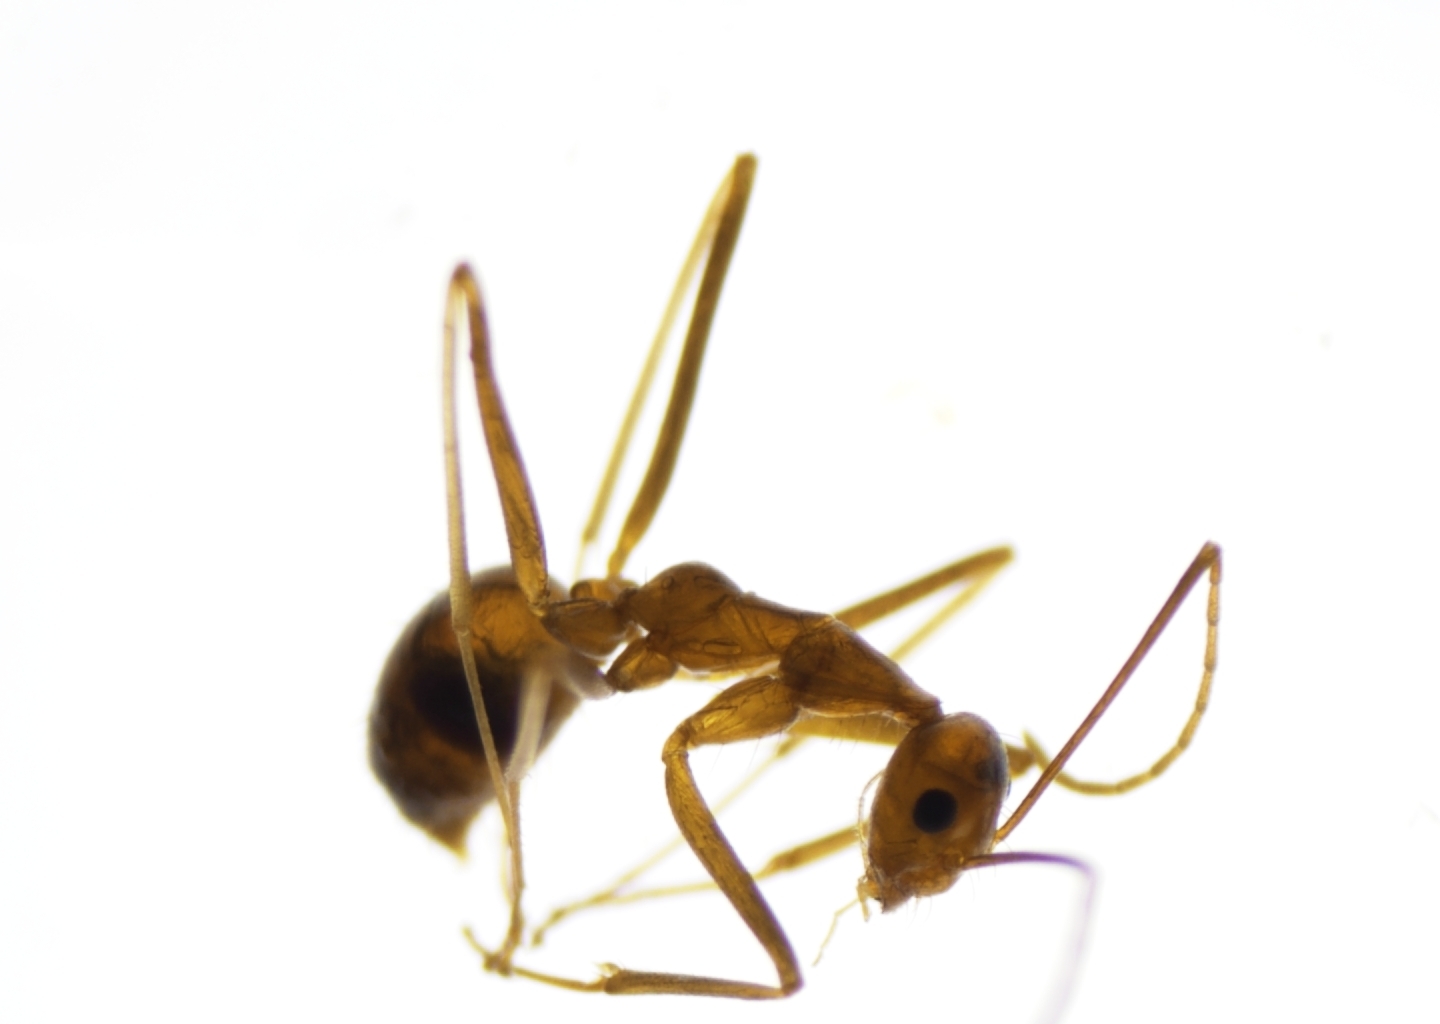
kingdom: Animalia
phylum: Arthropoda
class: Insecta
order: Hymenoptera
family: Formicidae
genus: Anoplolepis
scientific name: Anoplolepis gracilipes
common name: Ant
